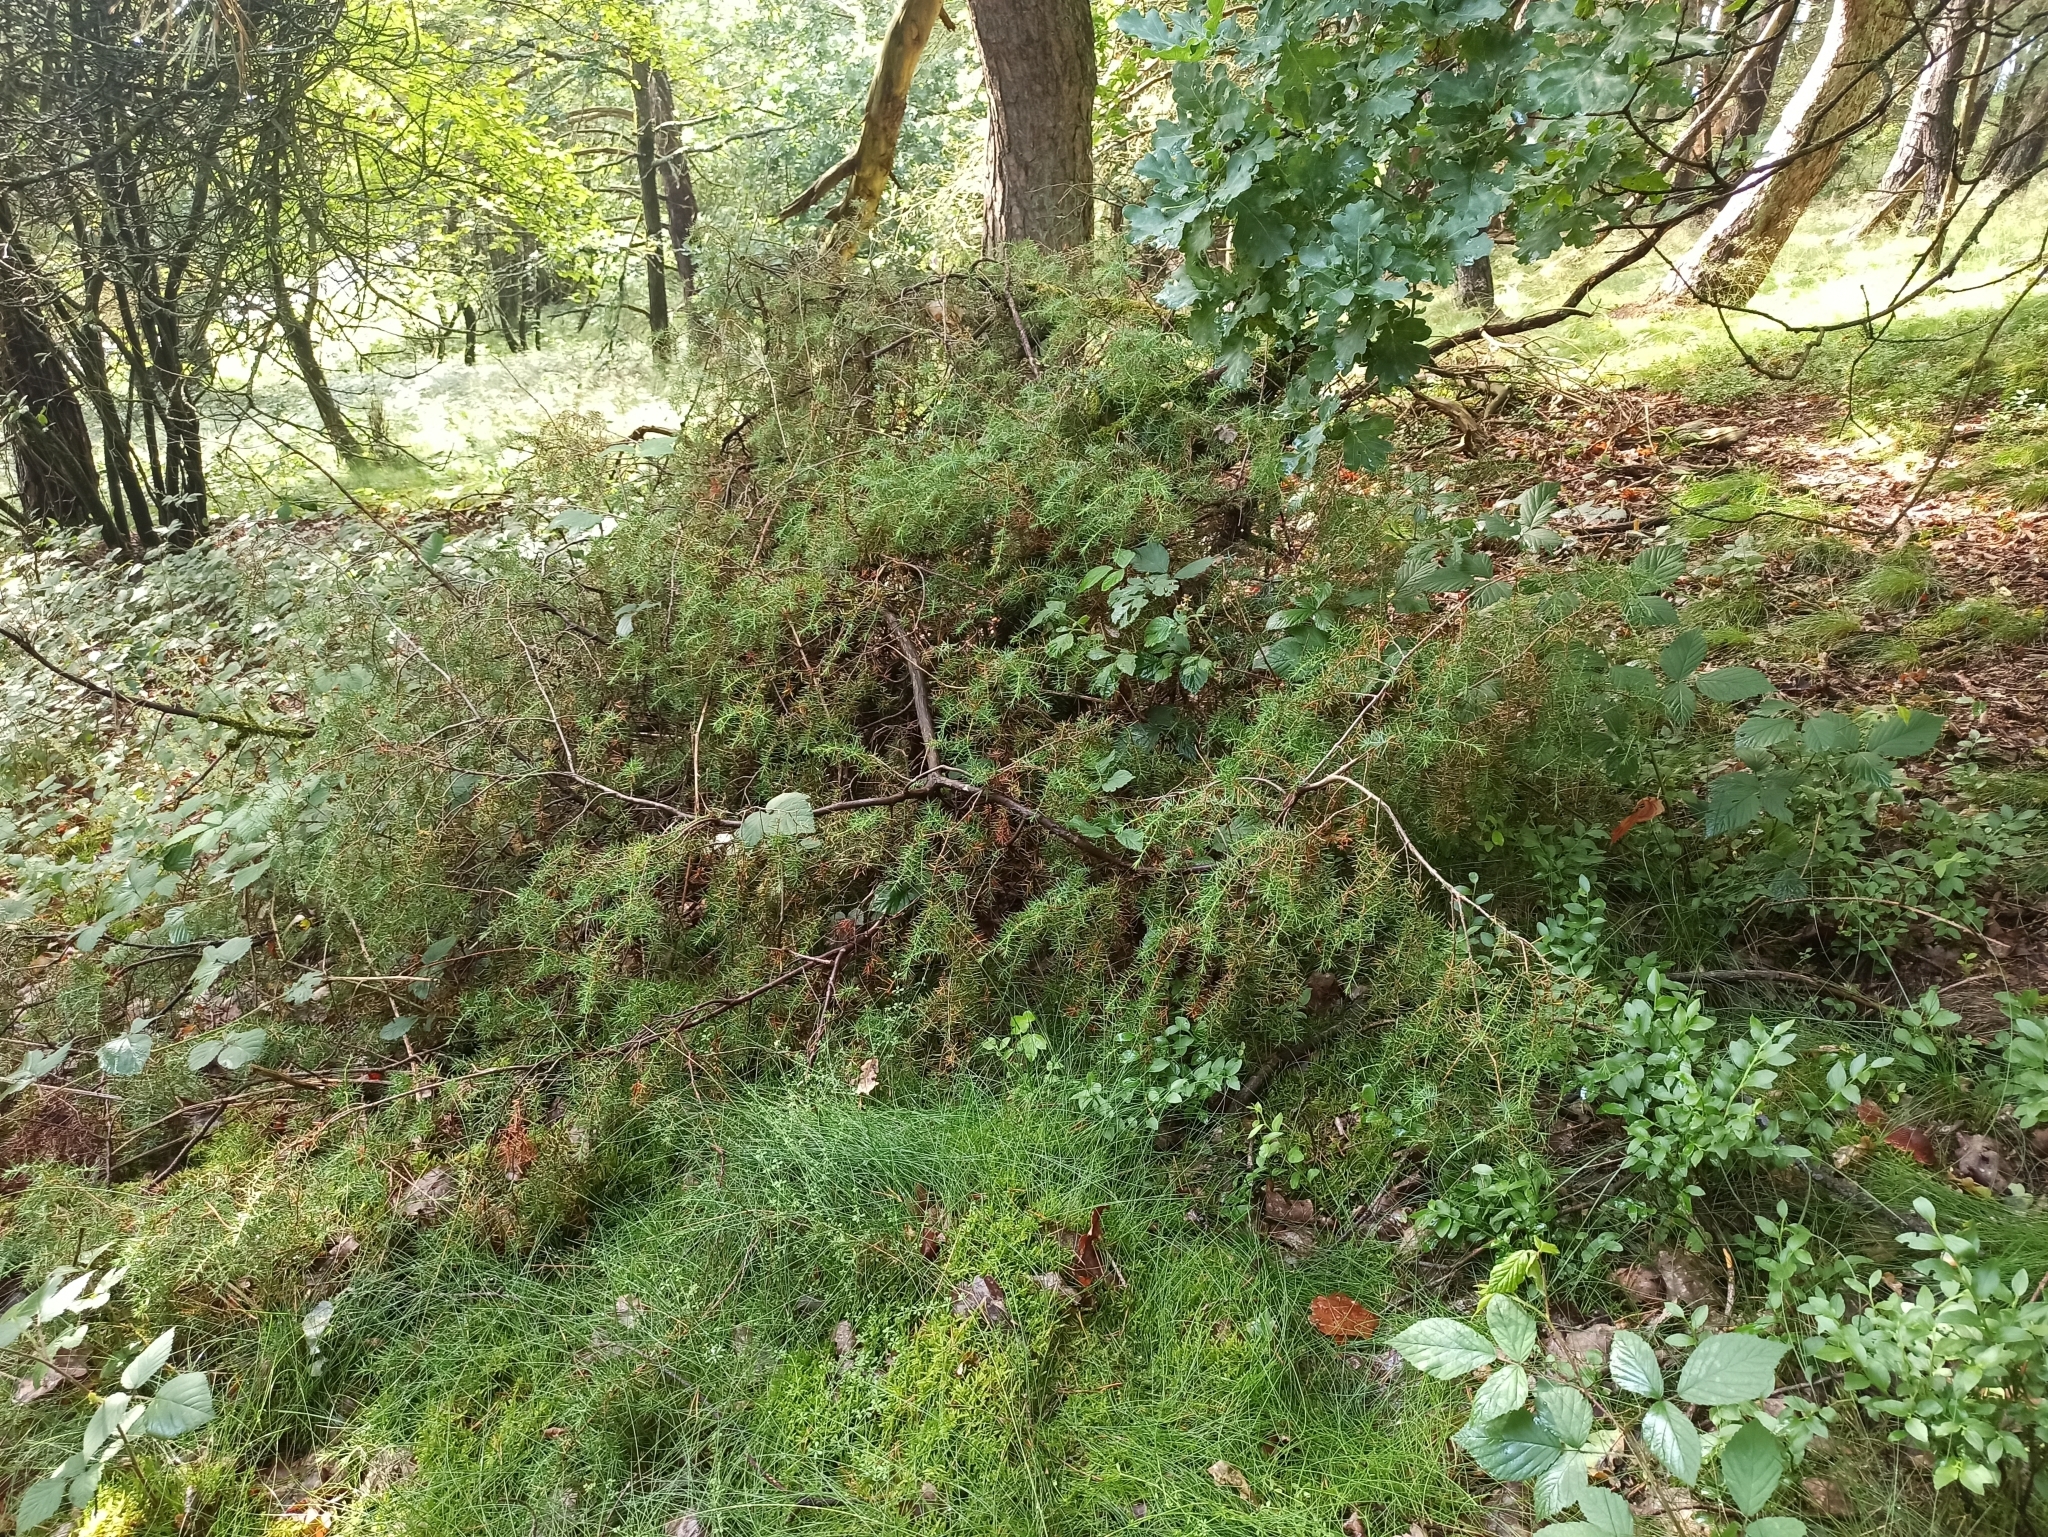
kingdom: Plantae
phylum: Tracheophyta
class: Pinopsida
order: Pinales
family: Cupressaceae
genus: Juniperus
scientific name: Juniperus communis
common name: Common juniper
